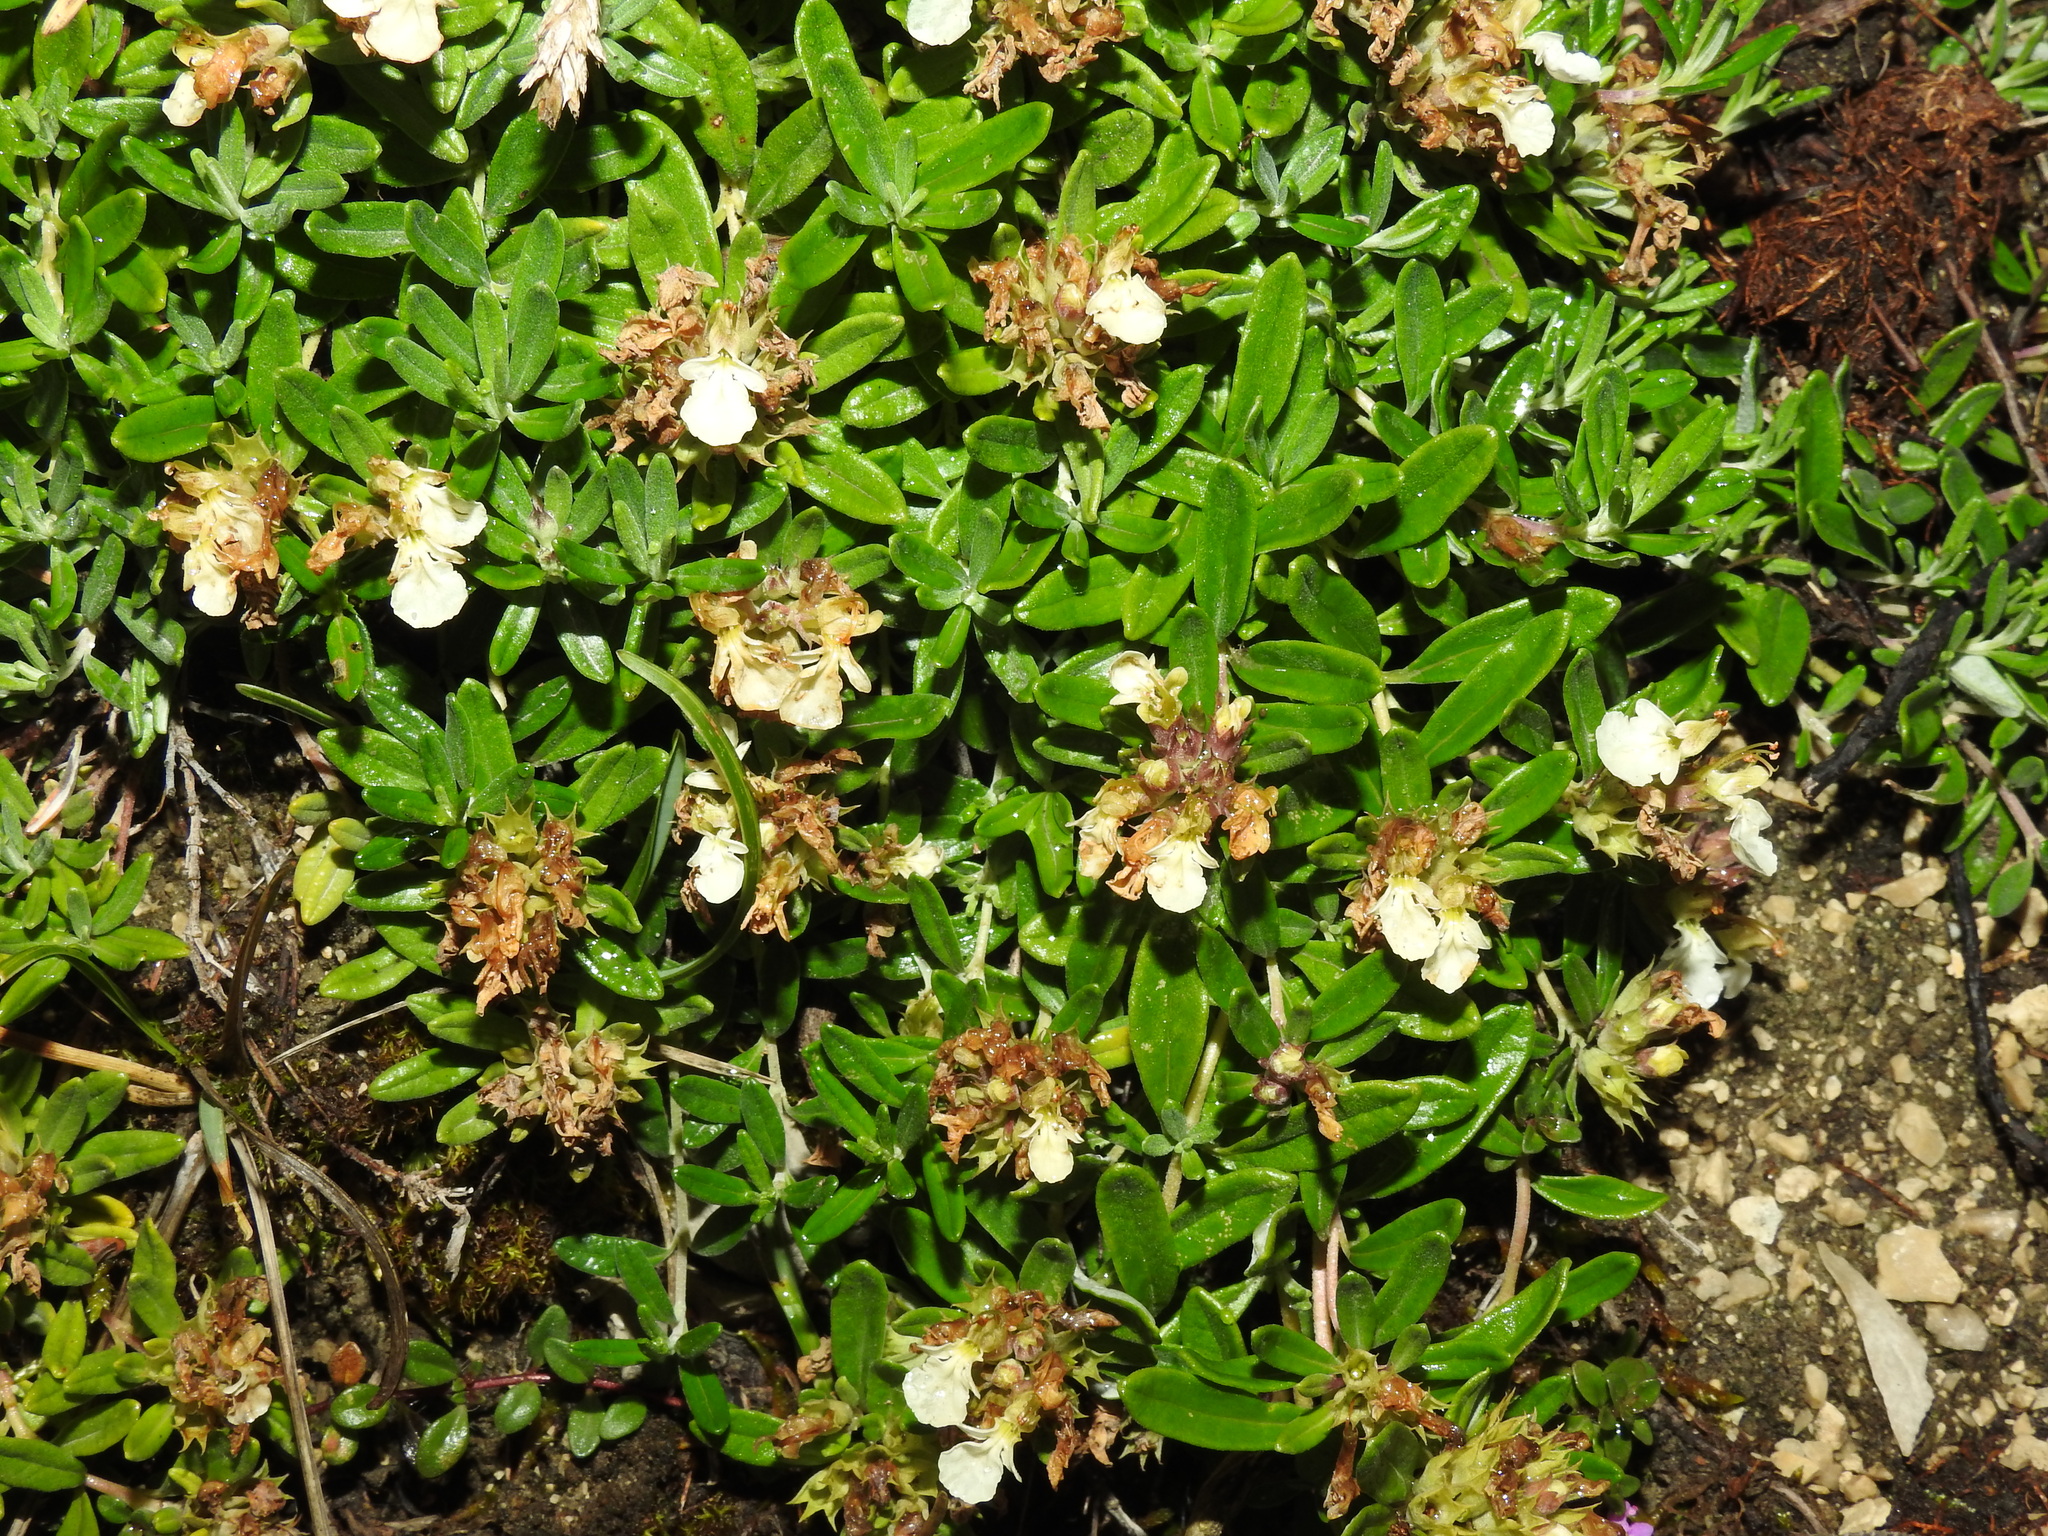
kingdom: Plantae
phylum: Tracheophyta
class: Magnoliopsida
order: Lamiales
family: Lamiaceae
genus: Teucrium
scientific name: Teucrium montanum
